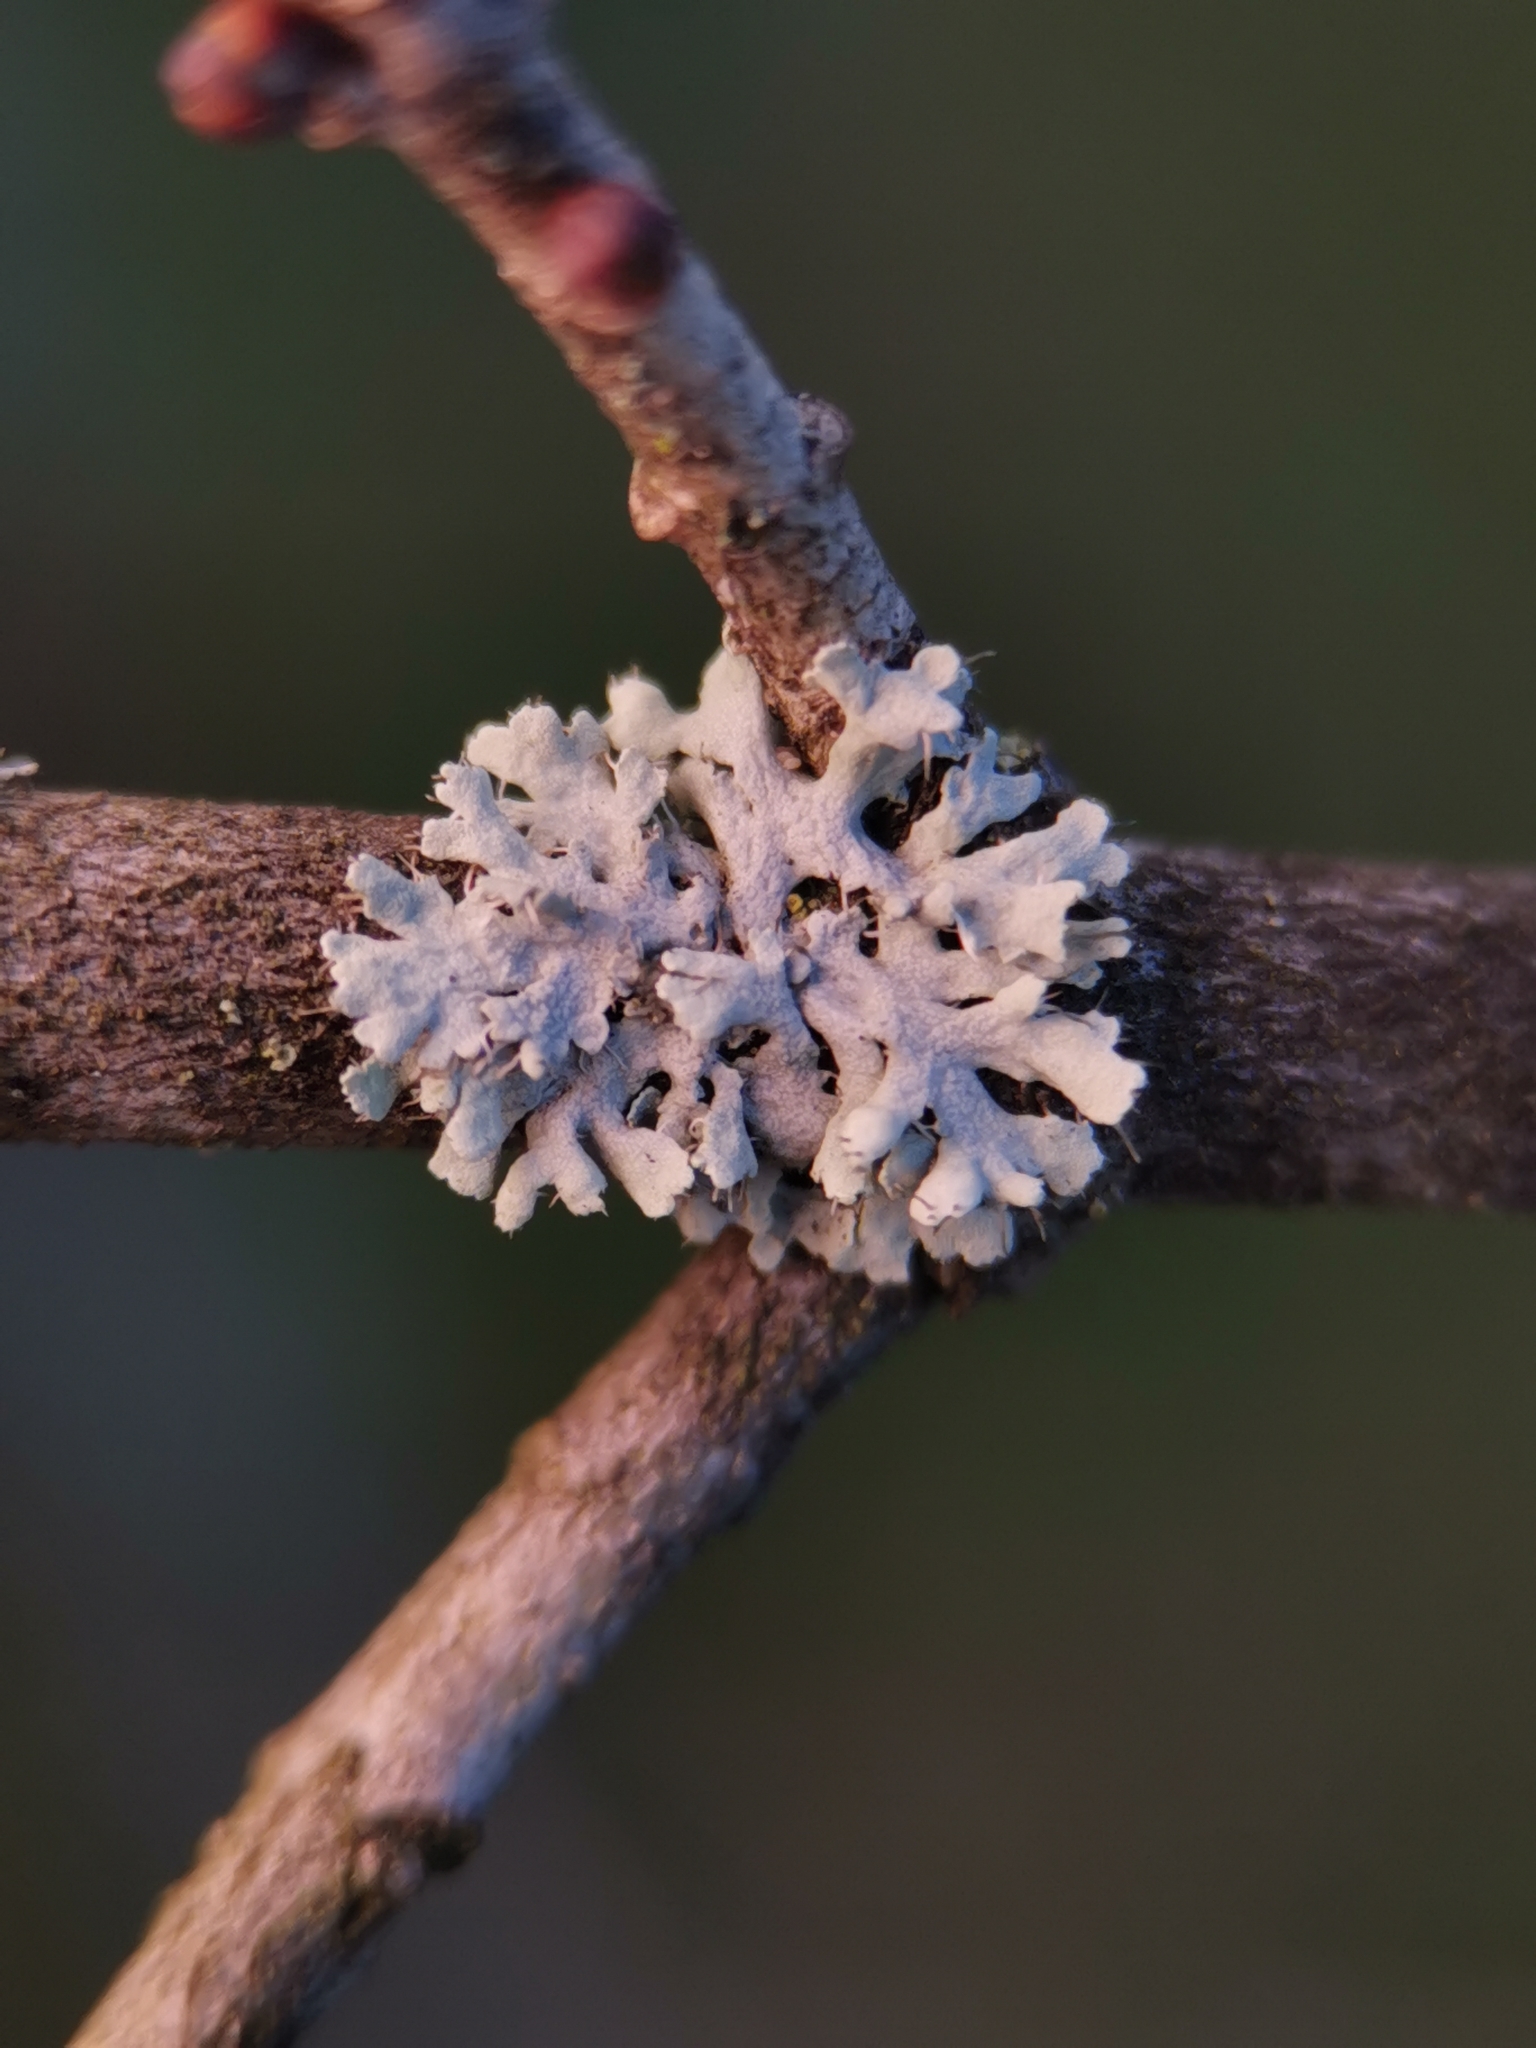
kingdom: Fungi
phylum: Ascomycota
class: Lecanoromycetes
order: Caliciales
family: Physciaceae
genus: Physcia
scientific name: Physcia tenella
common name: Fringed rosette lichen
